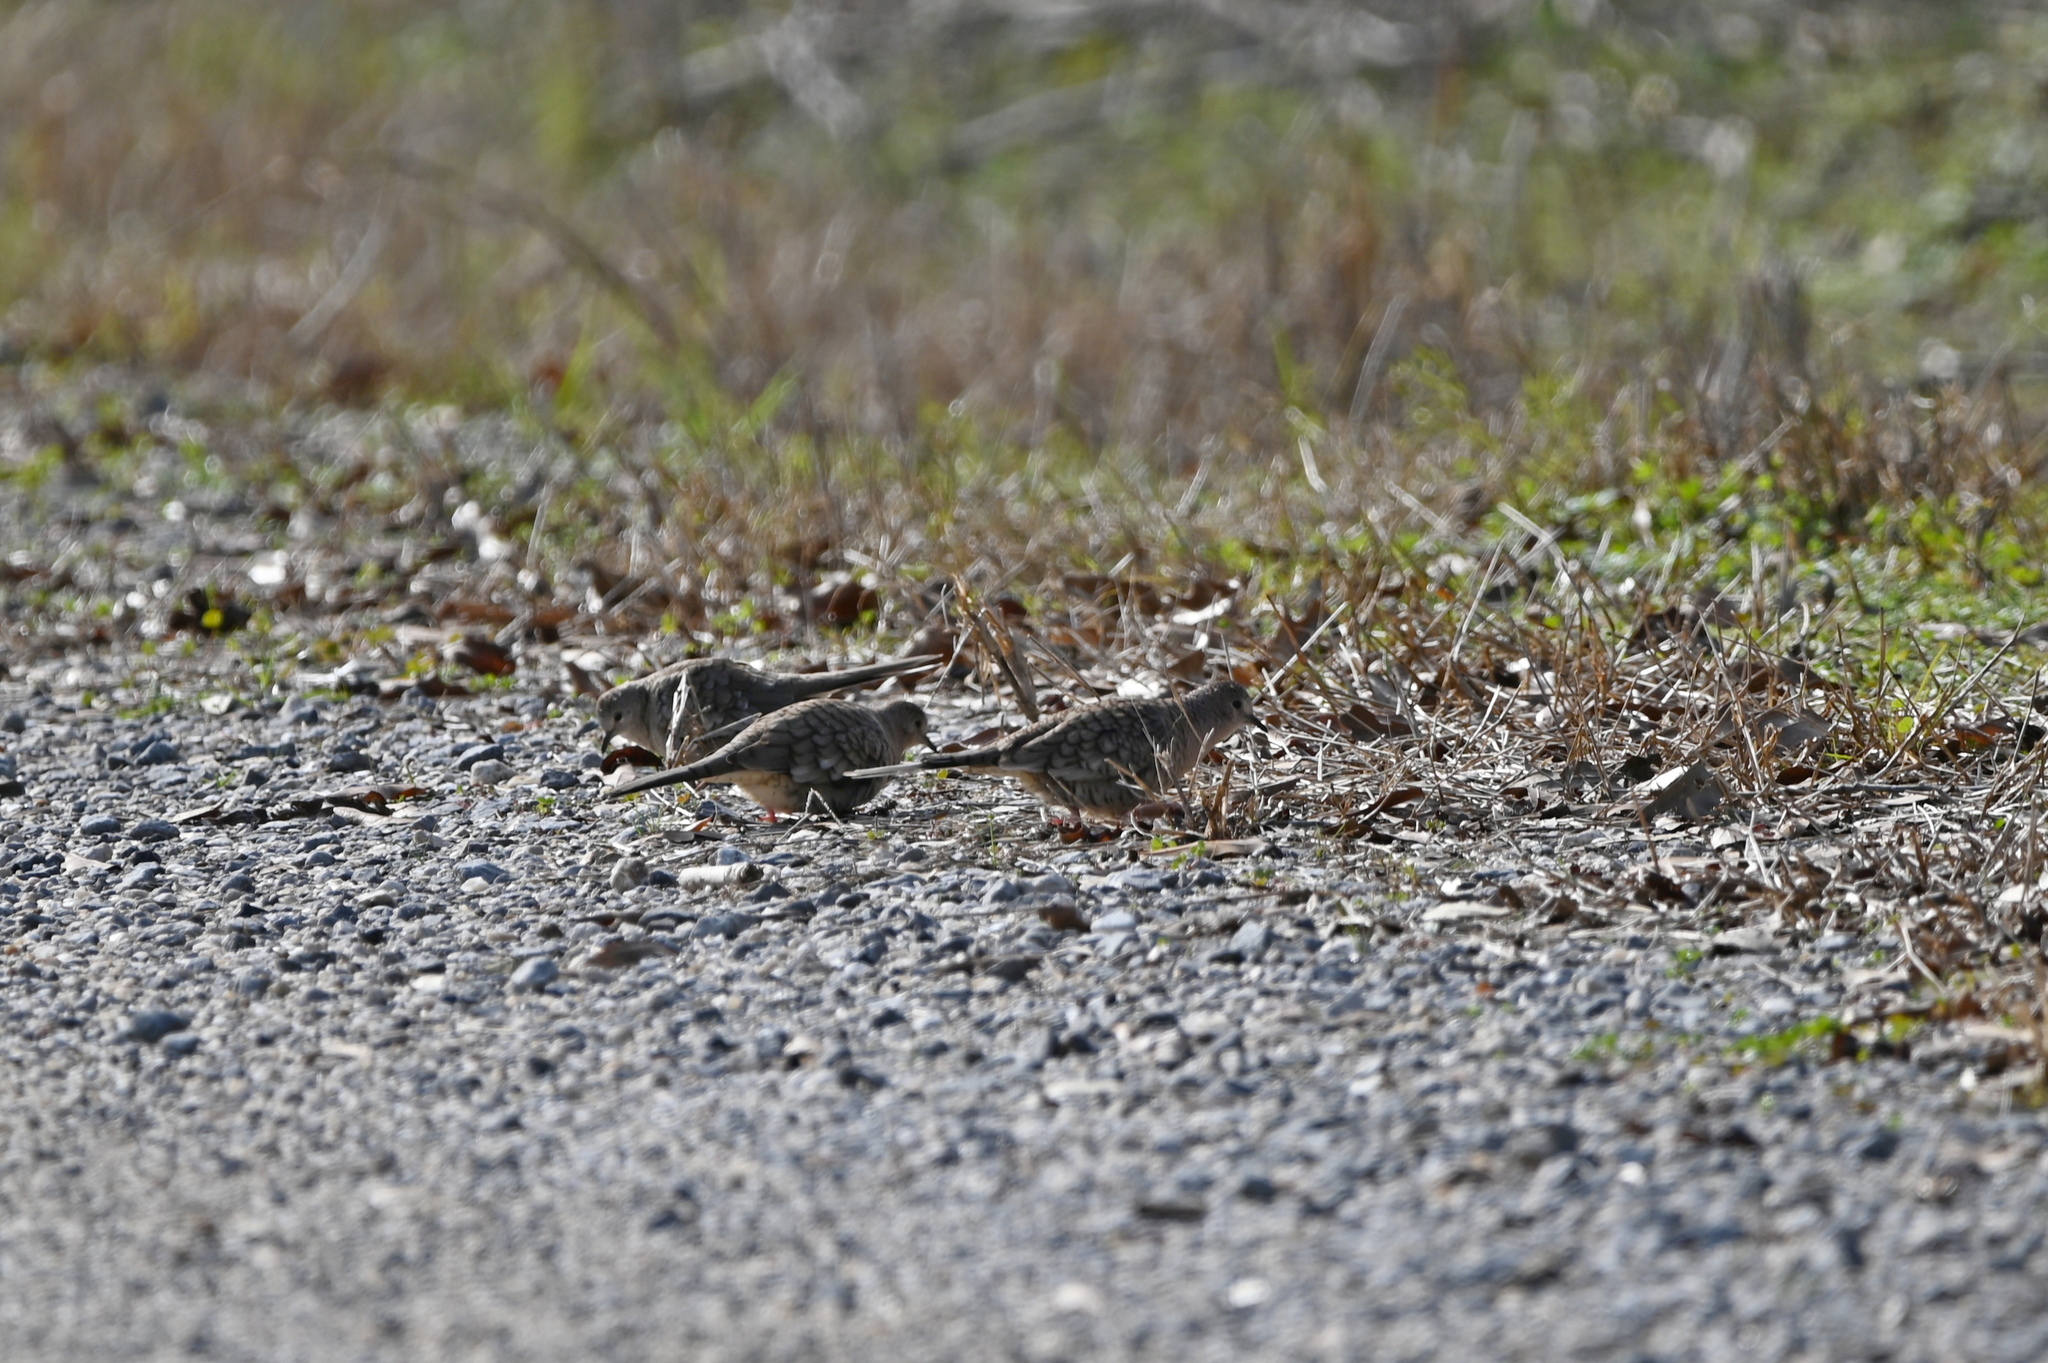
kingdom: Animalia
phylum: Chordata
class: Aves
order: Columbiformes
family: Columbidae
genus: Columbina
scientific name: Columbina inca
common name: Inca dove
